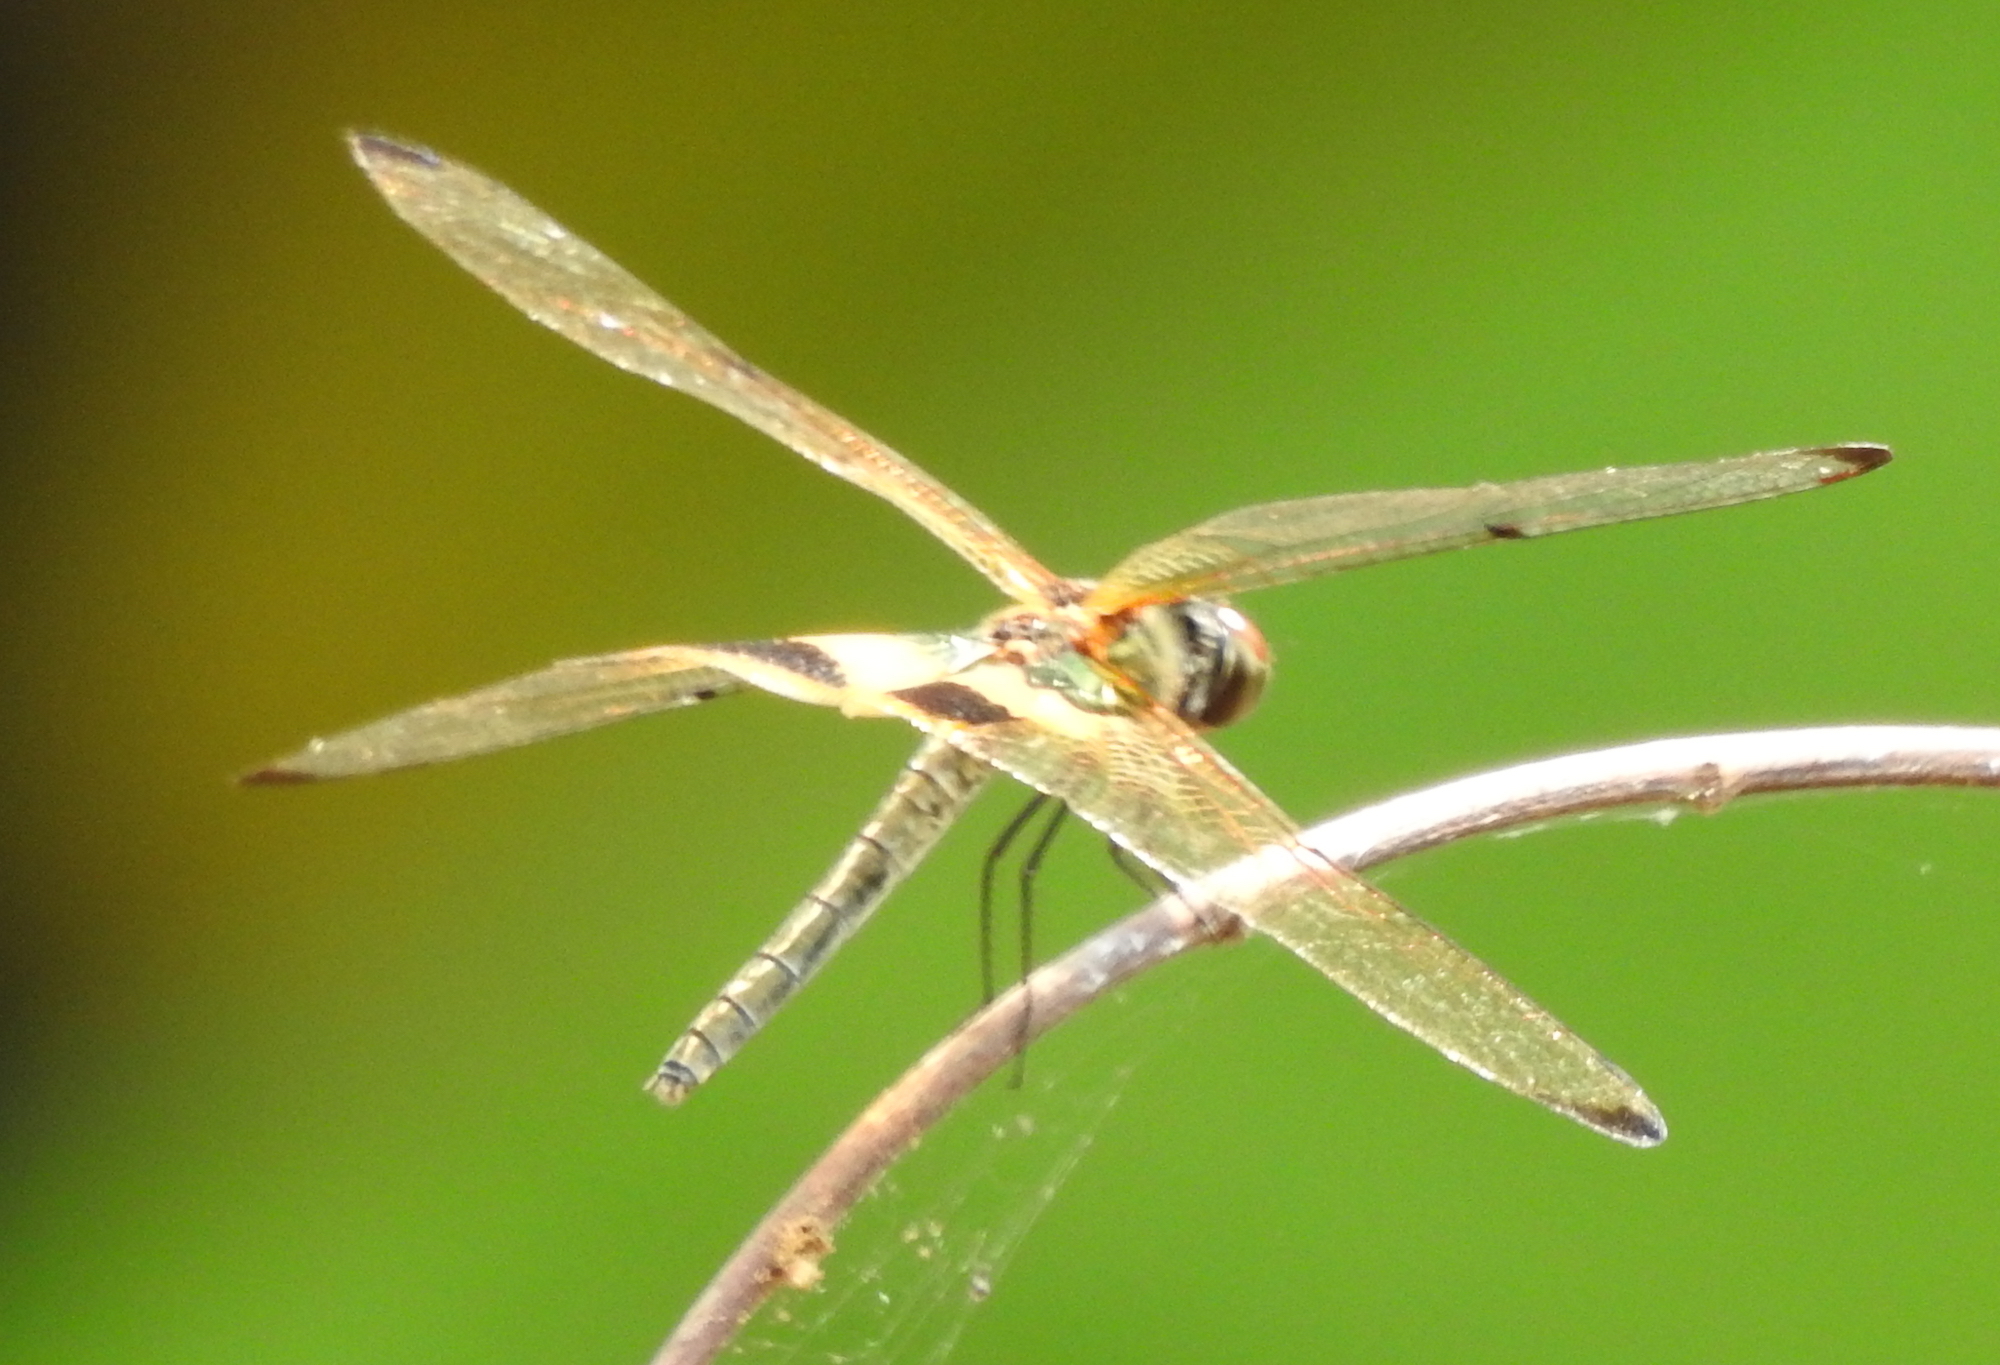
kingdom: Animalia
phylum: Arthropoda
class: Insecta
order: Odonata
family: Libellulidae
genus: Rhyothemis
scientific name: Rhyothemis phyllis
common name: Yellow-barred flutterer
